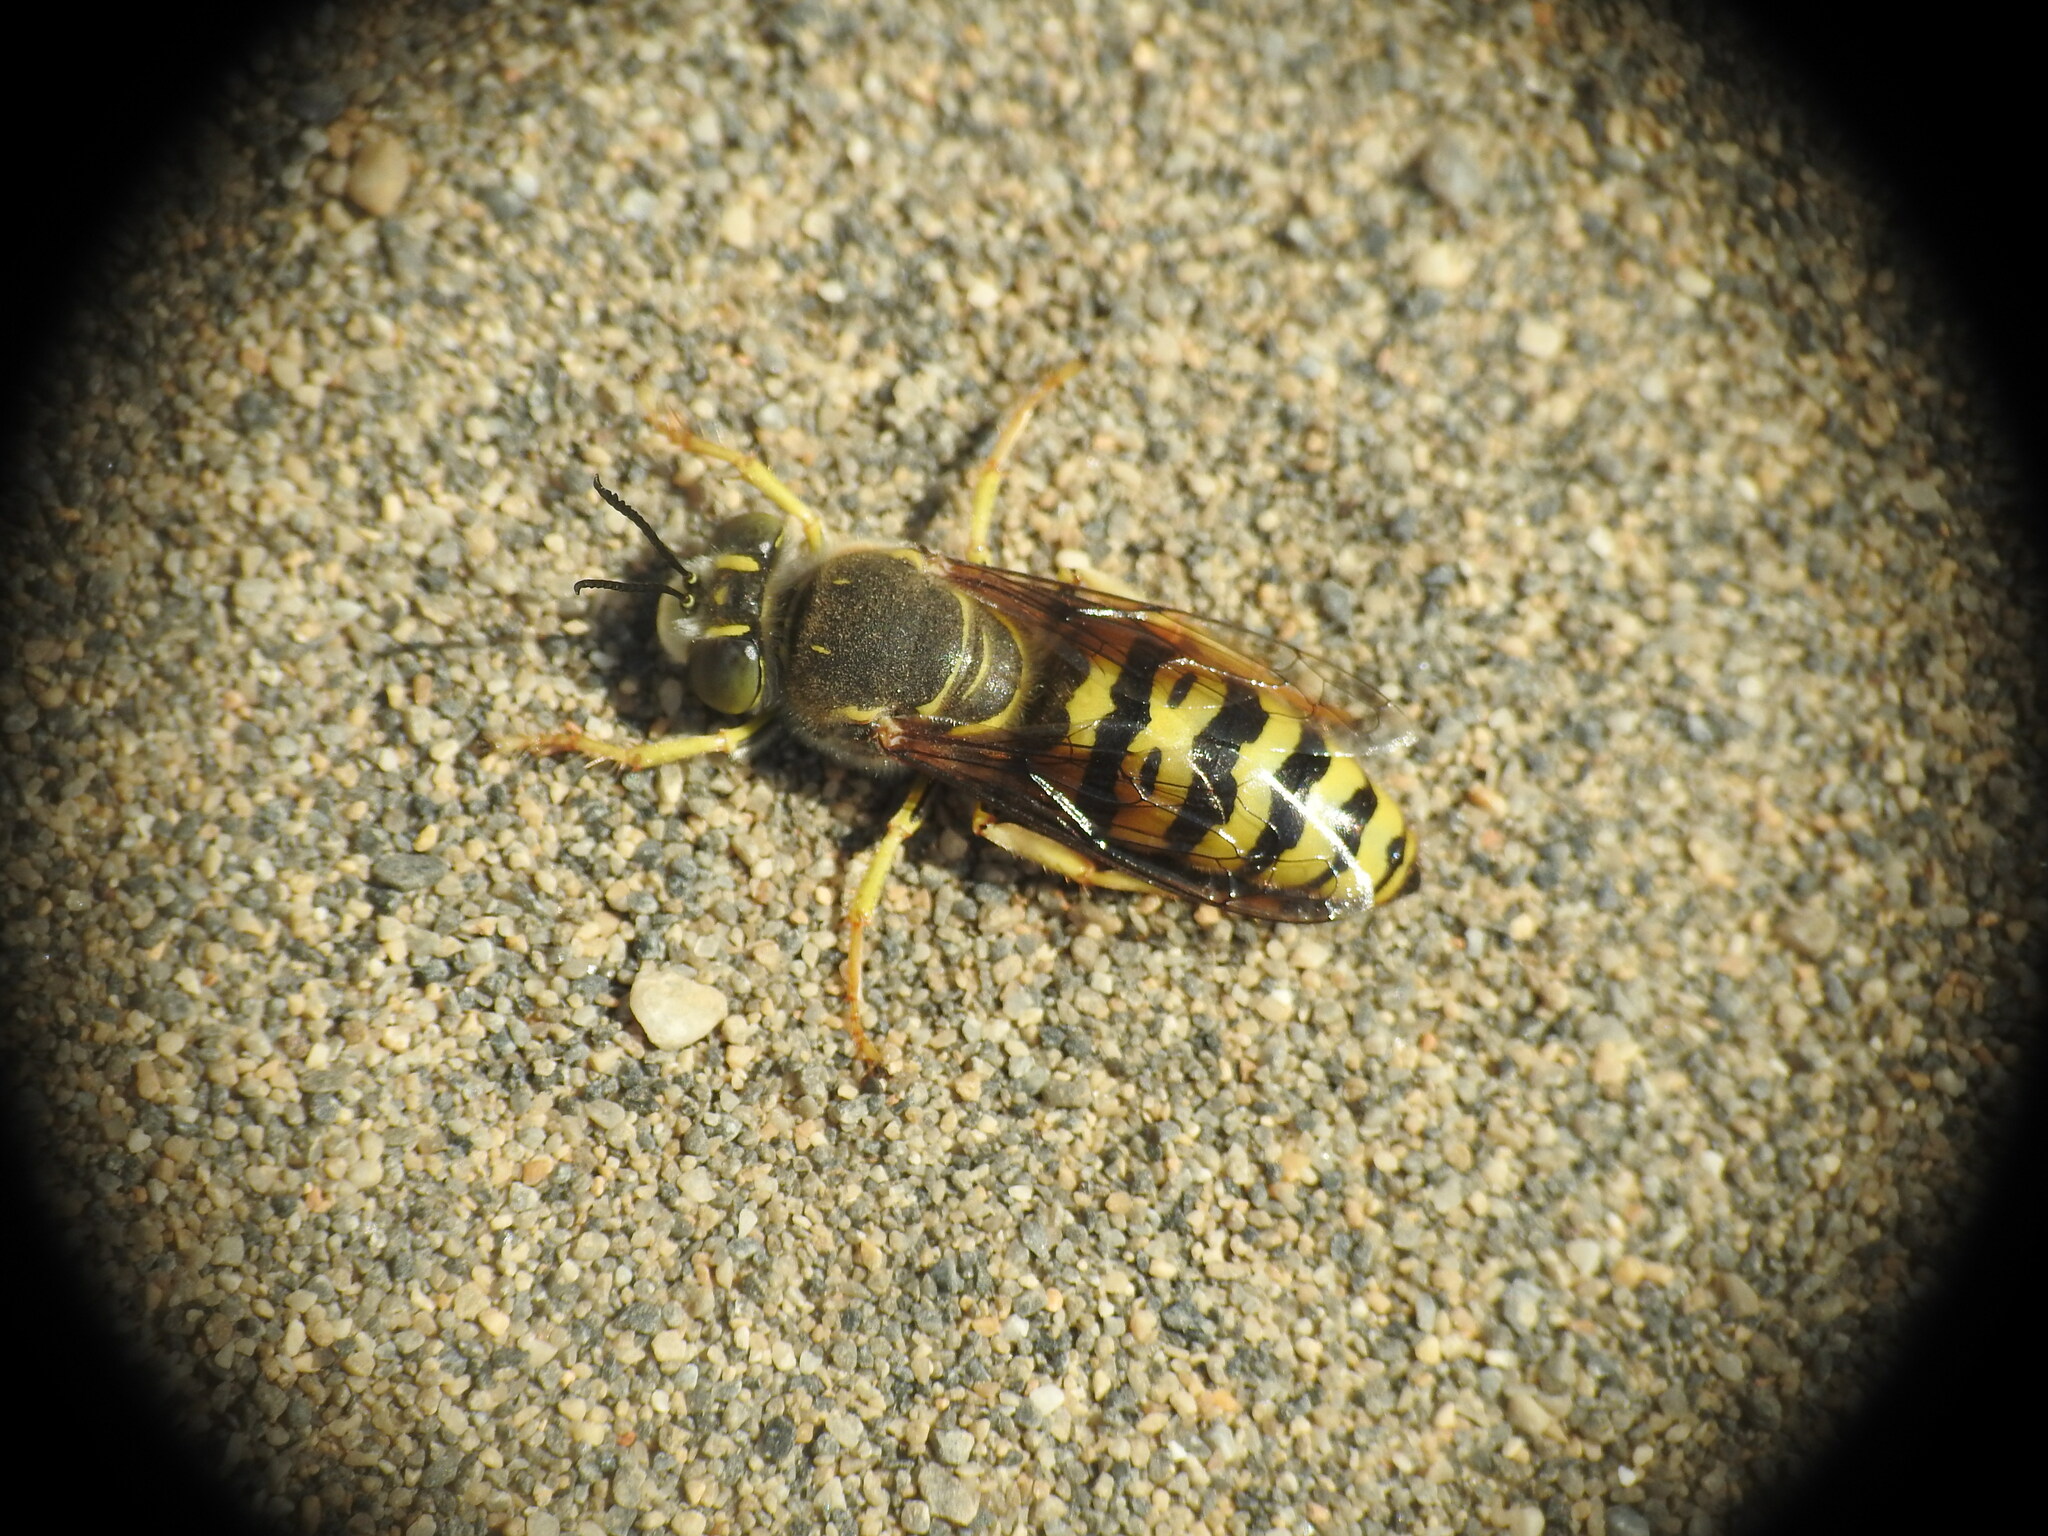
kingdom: Animalia
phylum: Arthropoda
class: Insecta
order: Hymenoptera
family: Crabronidae
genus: Bembix
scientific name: Bembix oculata
